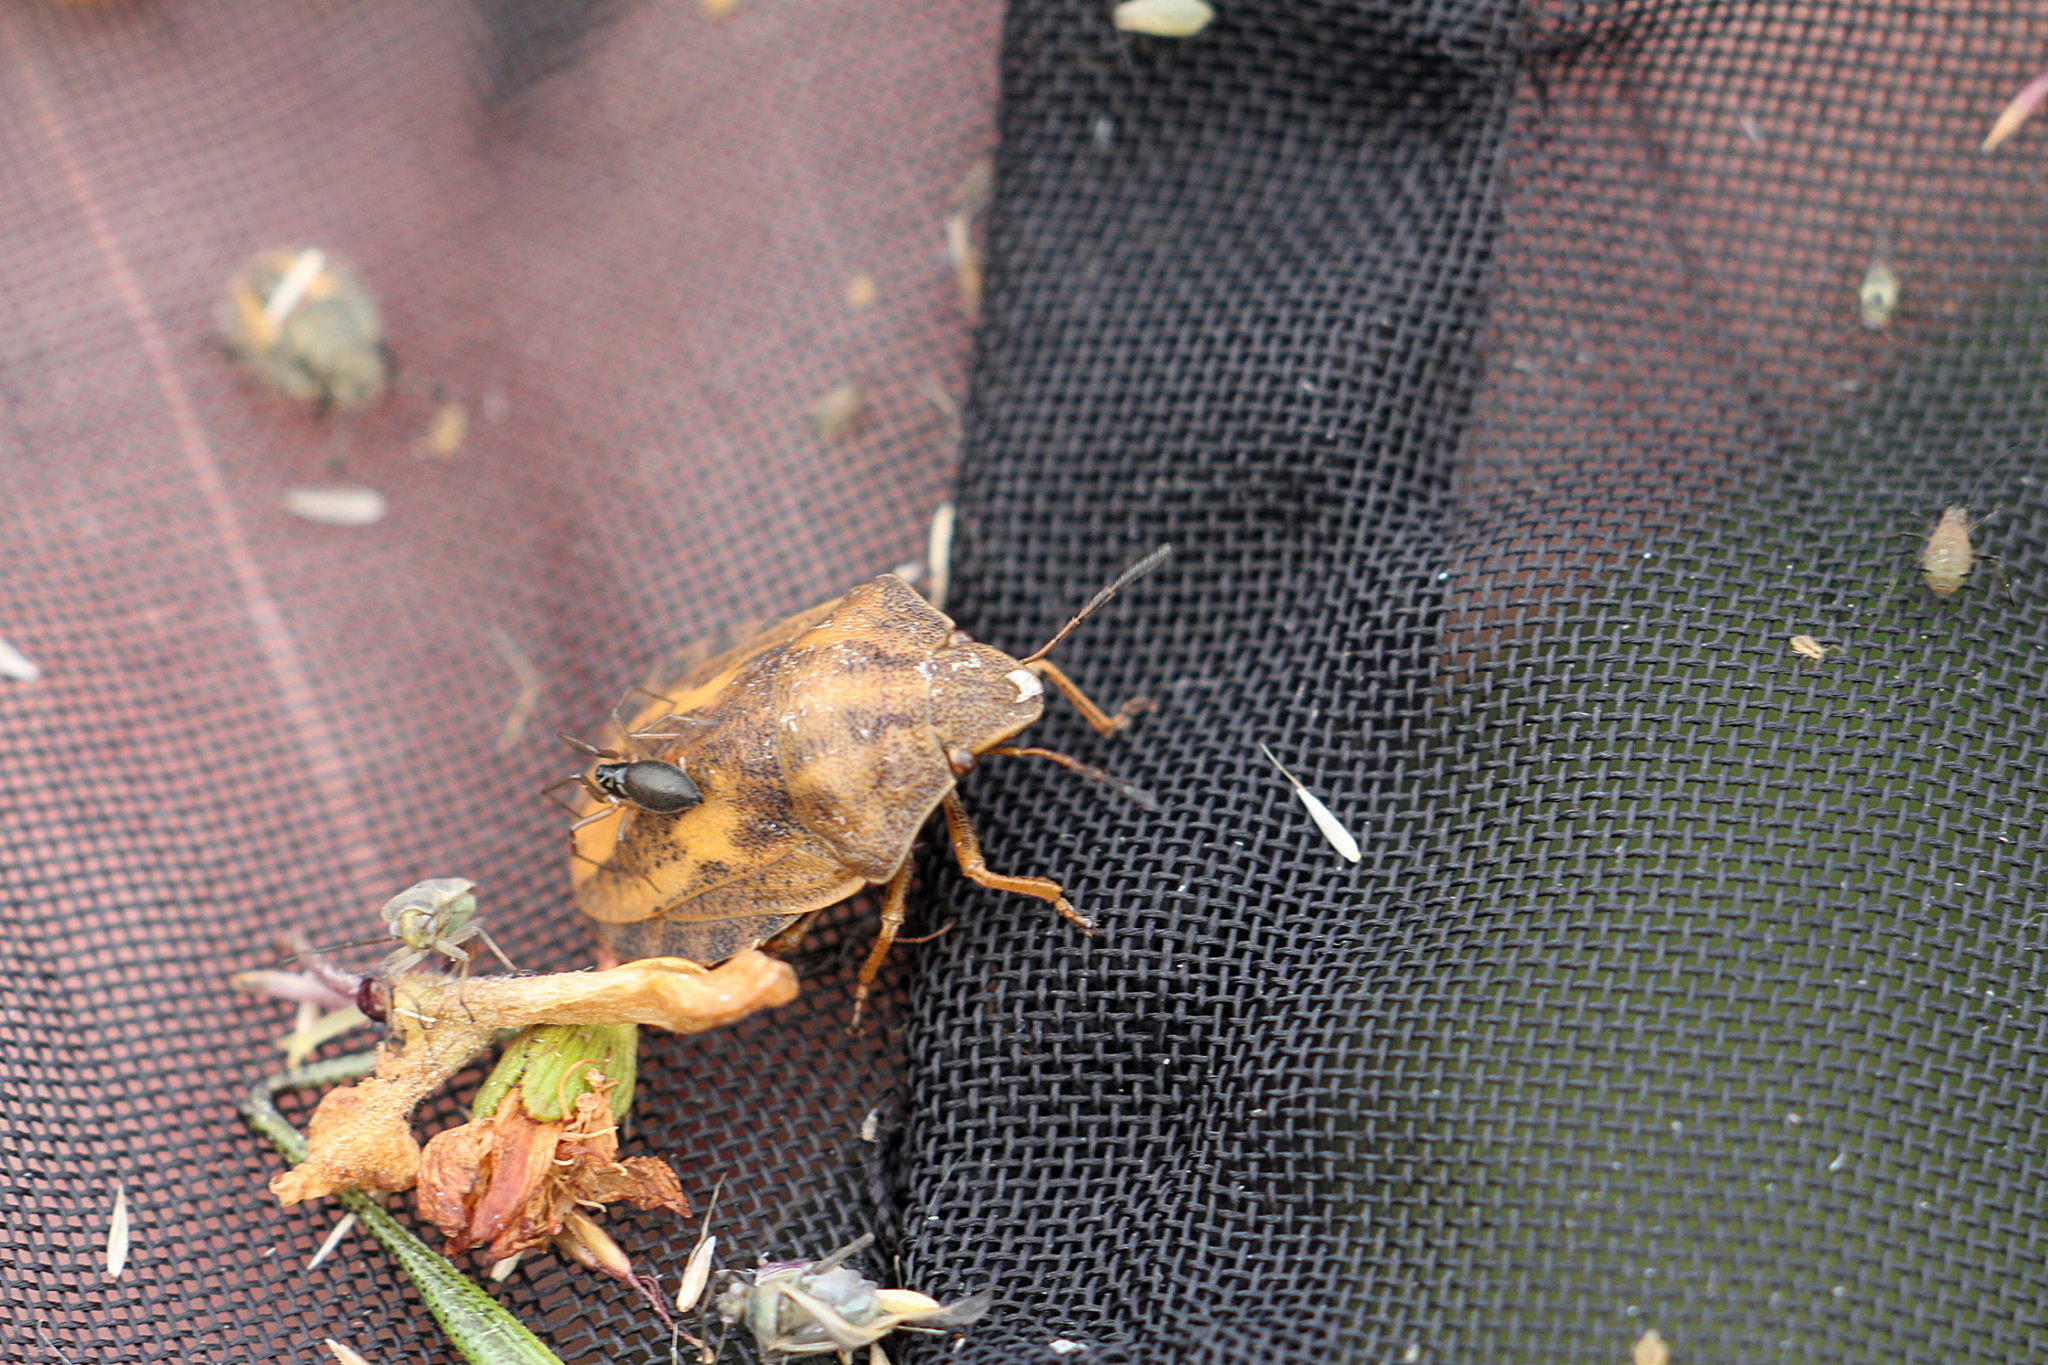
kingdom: Animalia
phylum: Arthropoda
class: Insecta
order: Hemiptera
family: Scutelleridae
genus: Eurygaster
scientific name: Eurygaster testudinaria
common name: Tortoise bug
